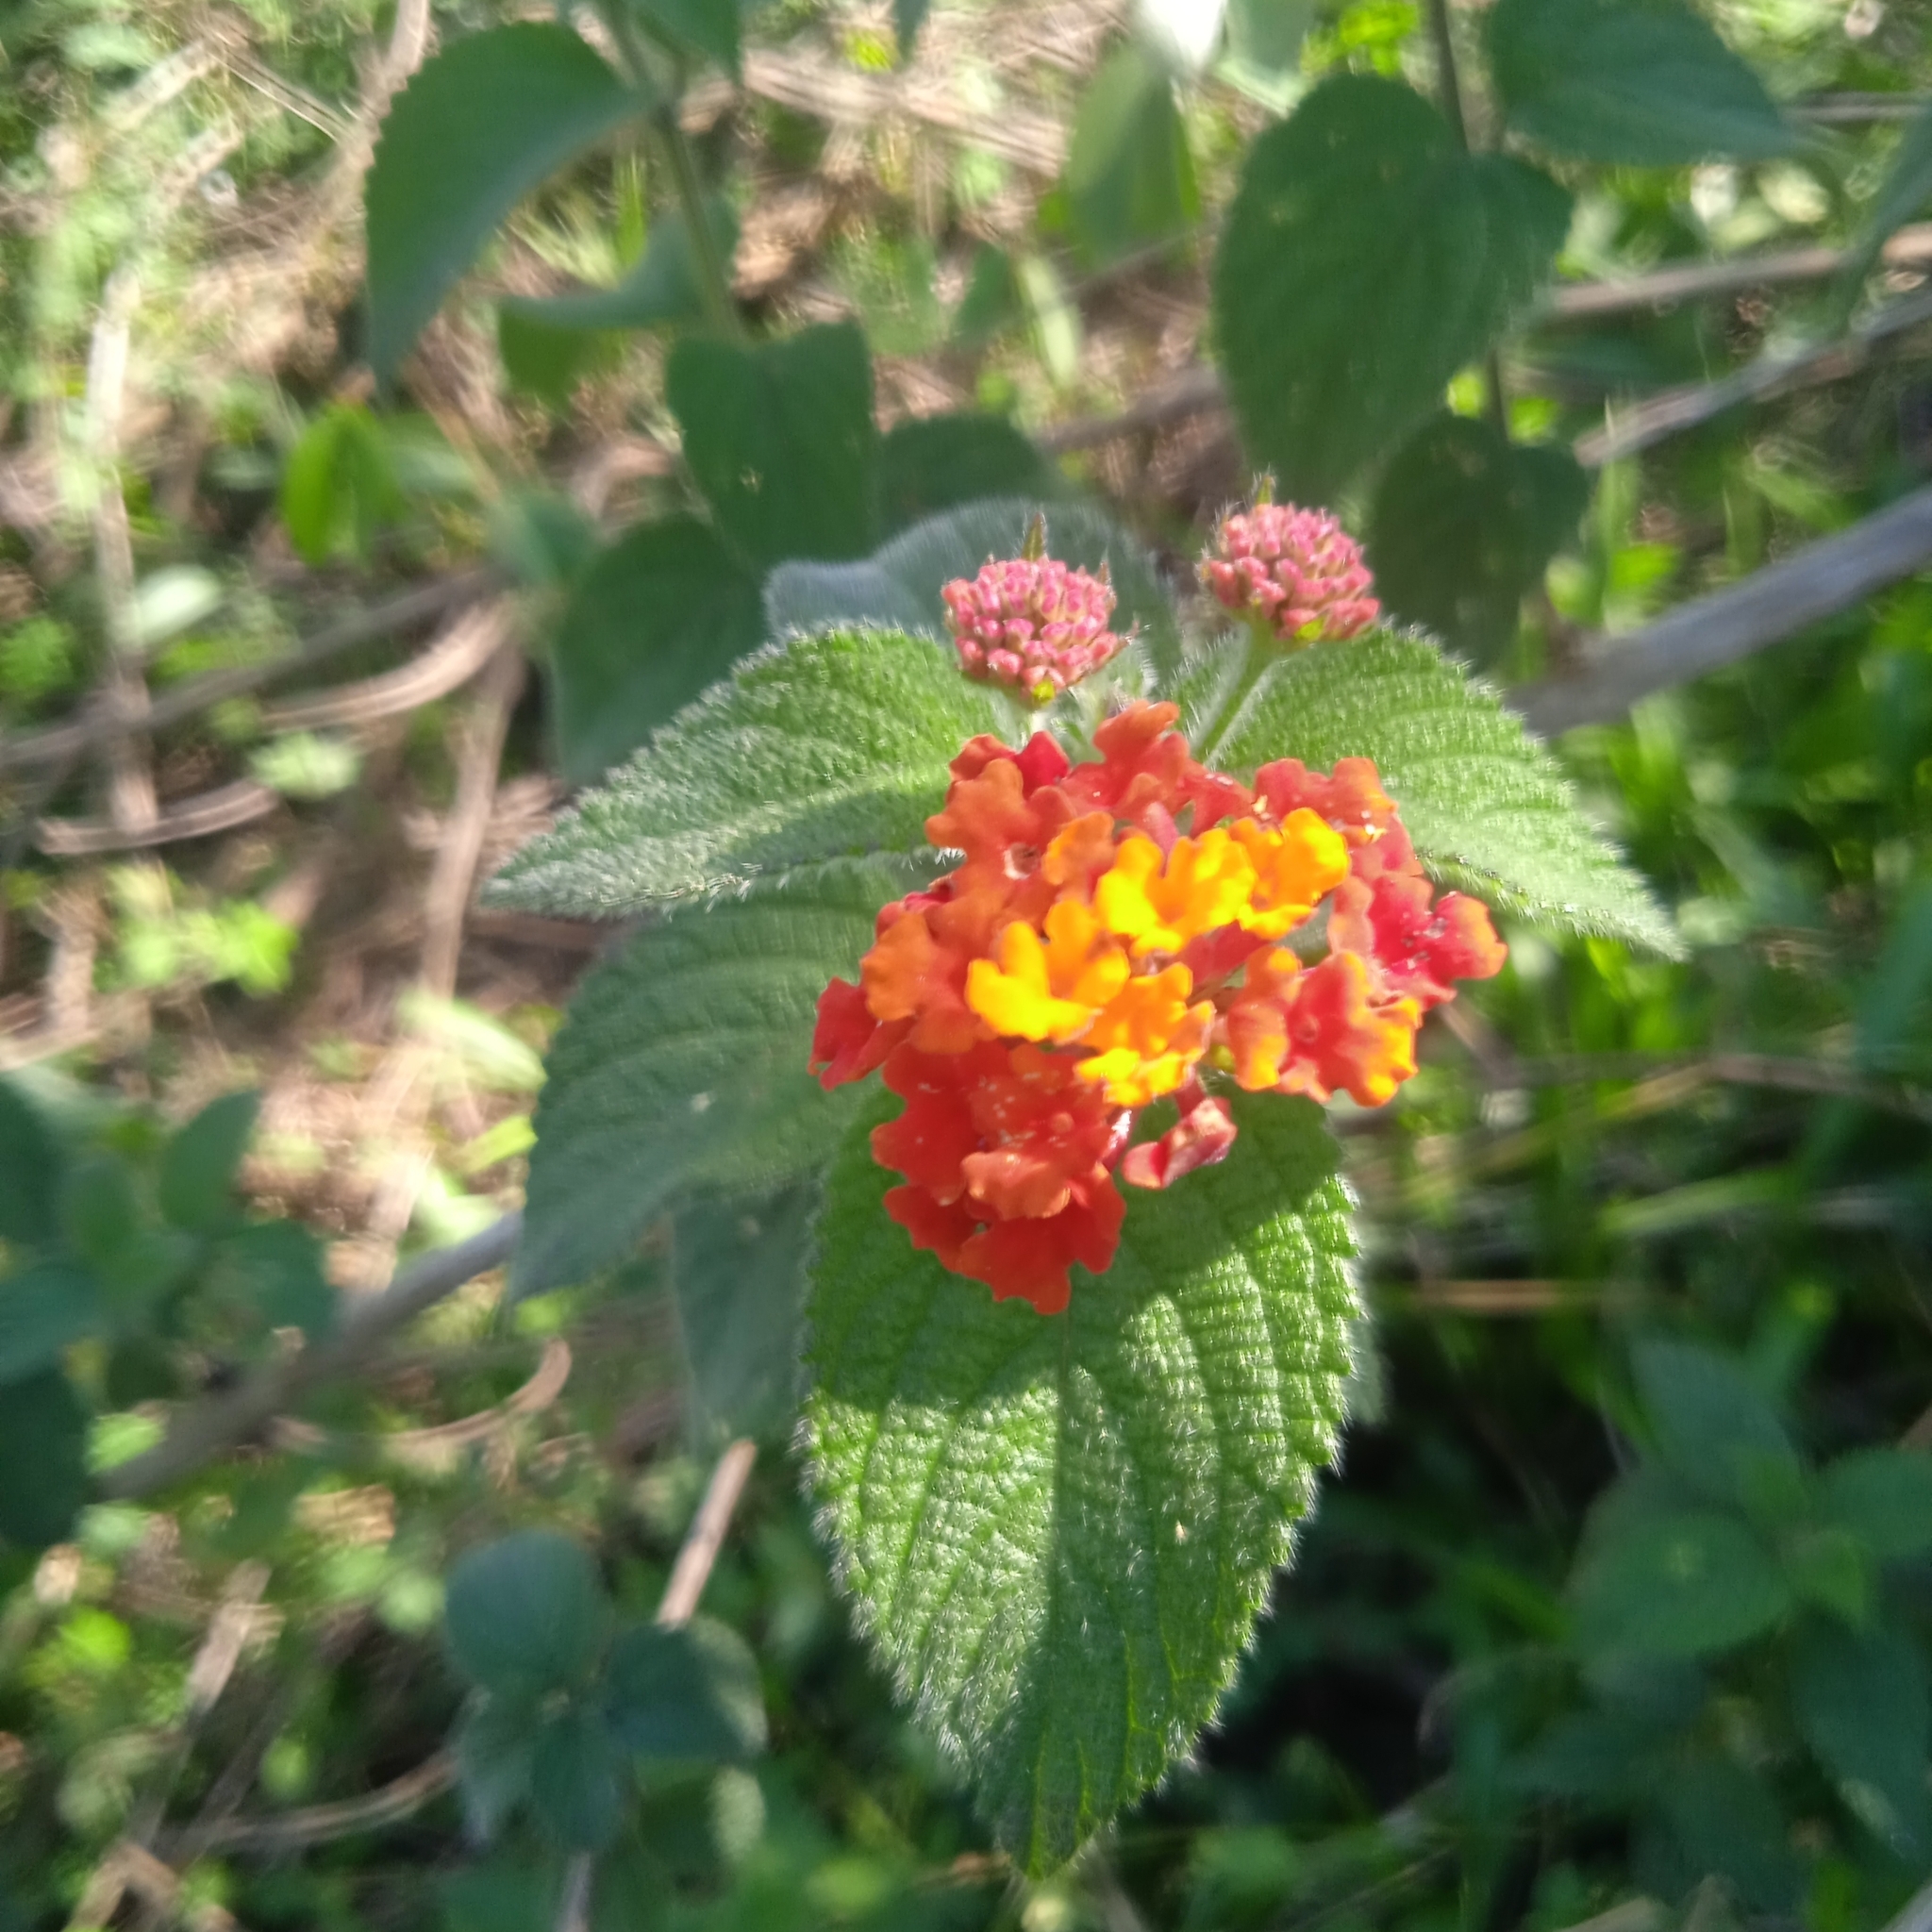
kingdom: Plantae
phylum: Tracheophyta
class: Magnoliopsida
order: Lamiales
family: Verbenaceae
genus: Lantana
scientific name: Lantana camara
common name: Lantana
